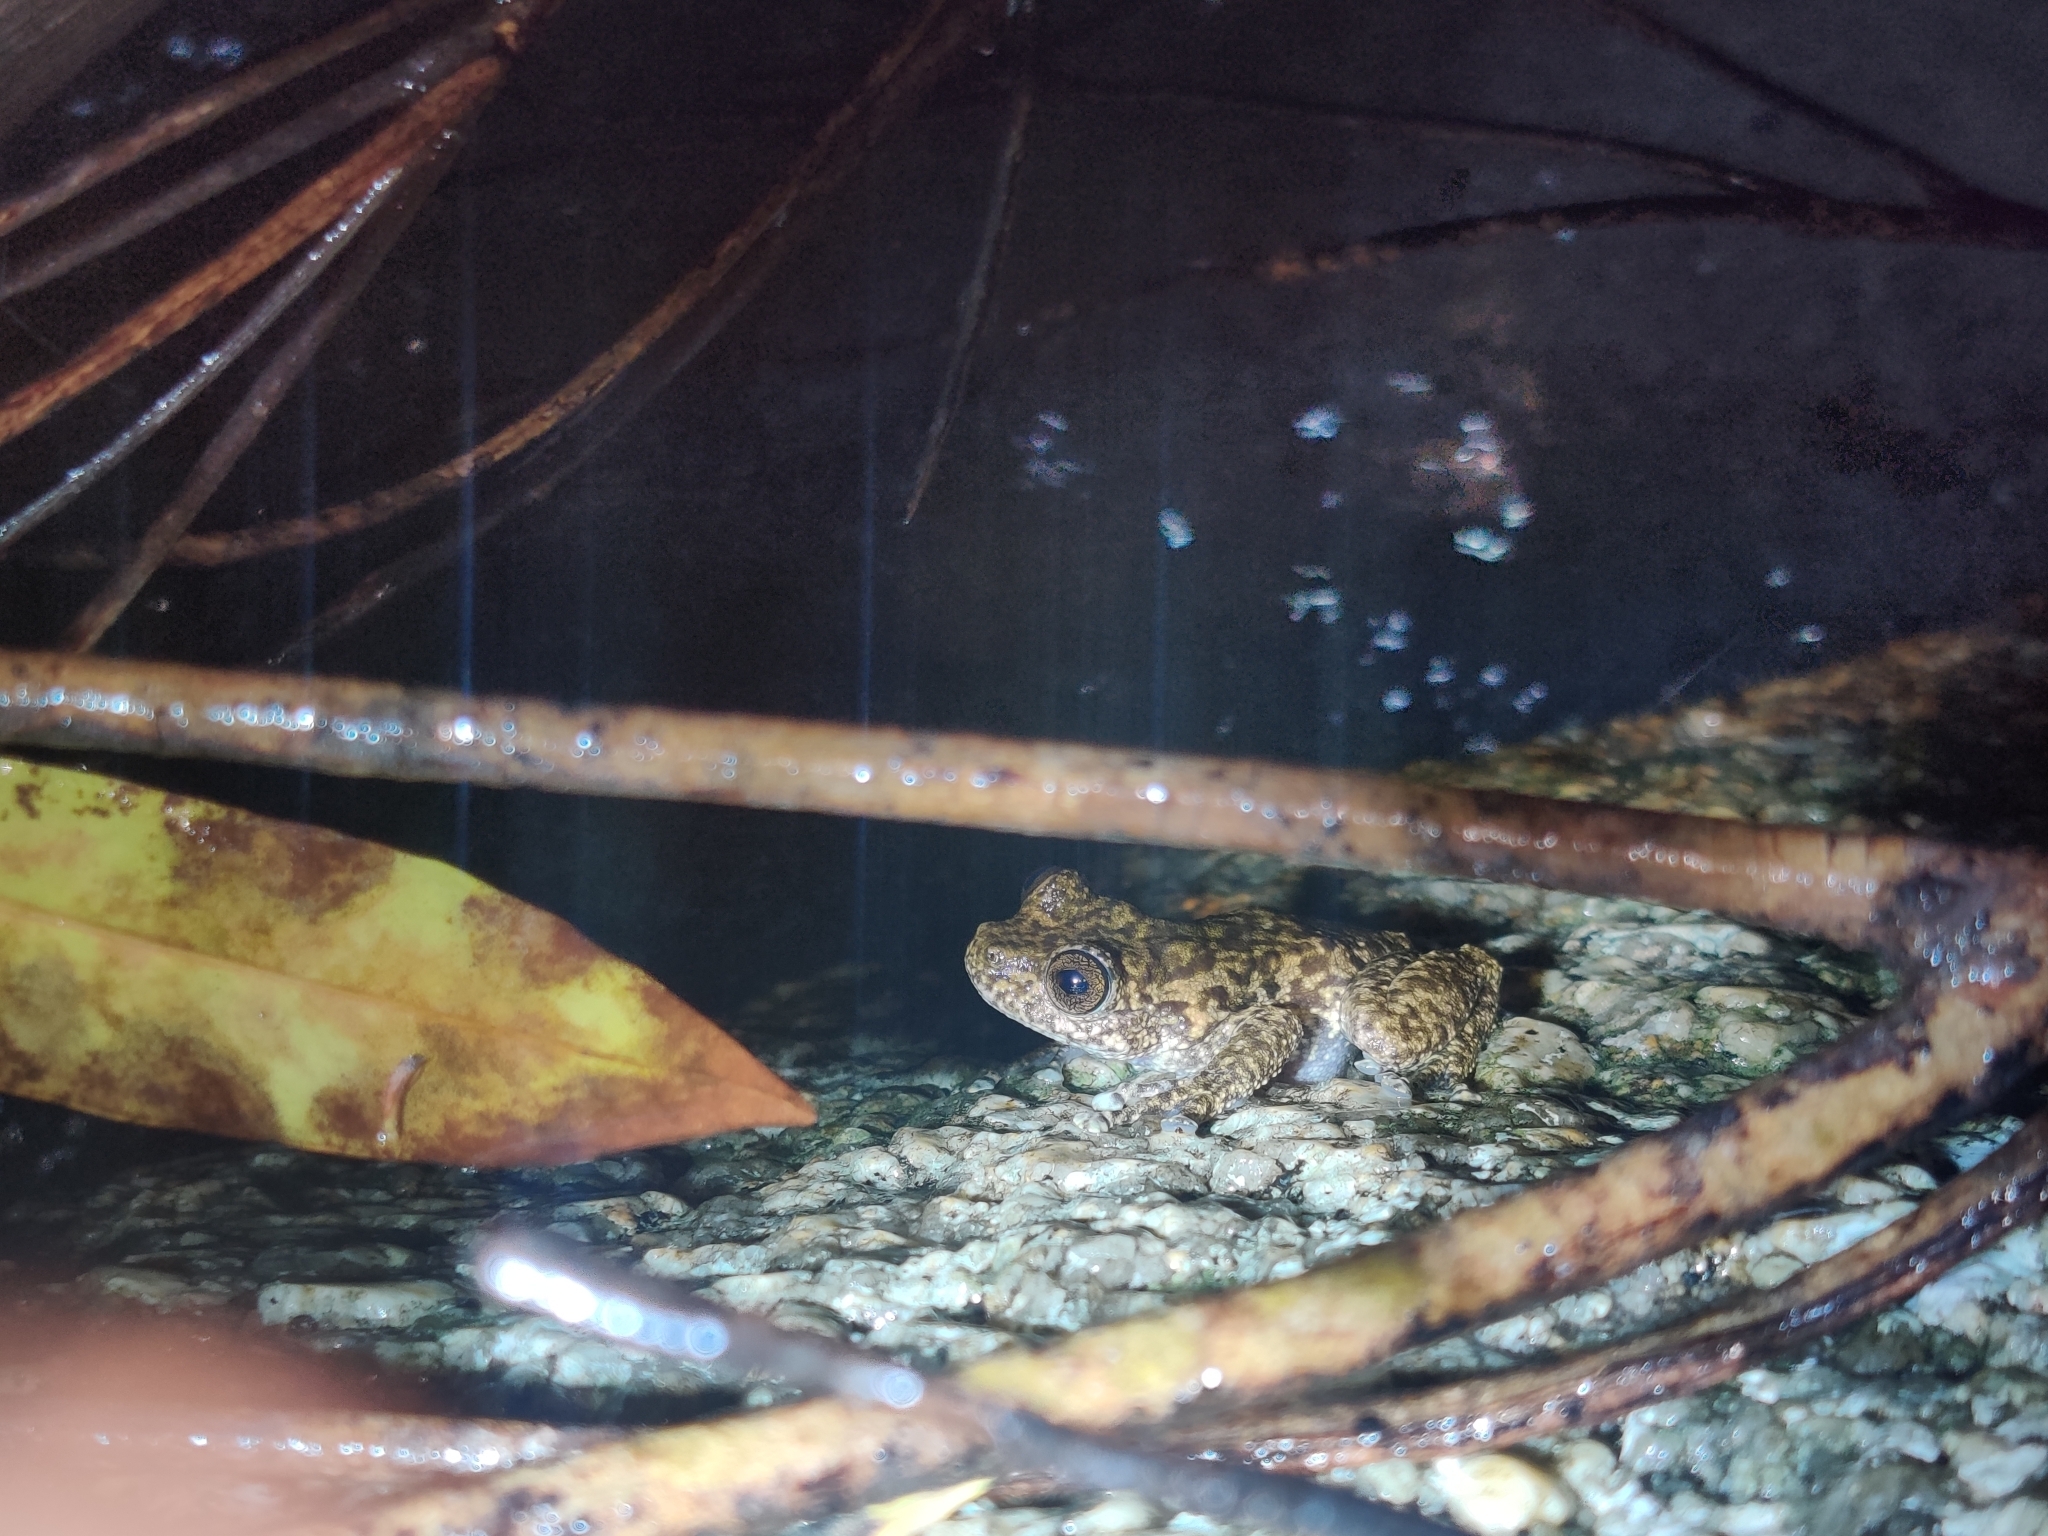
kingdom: Animalia
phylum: Chordata
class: Amphibia
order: Anura
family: Pelodryadidae
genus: Ranoidea
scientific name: Ranoidea nannotis
